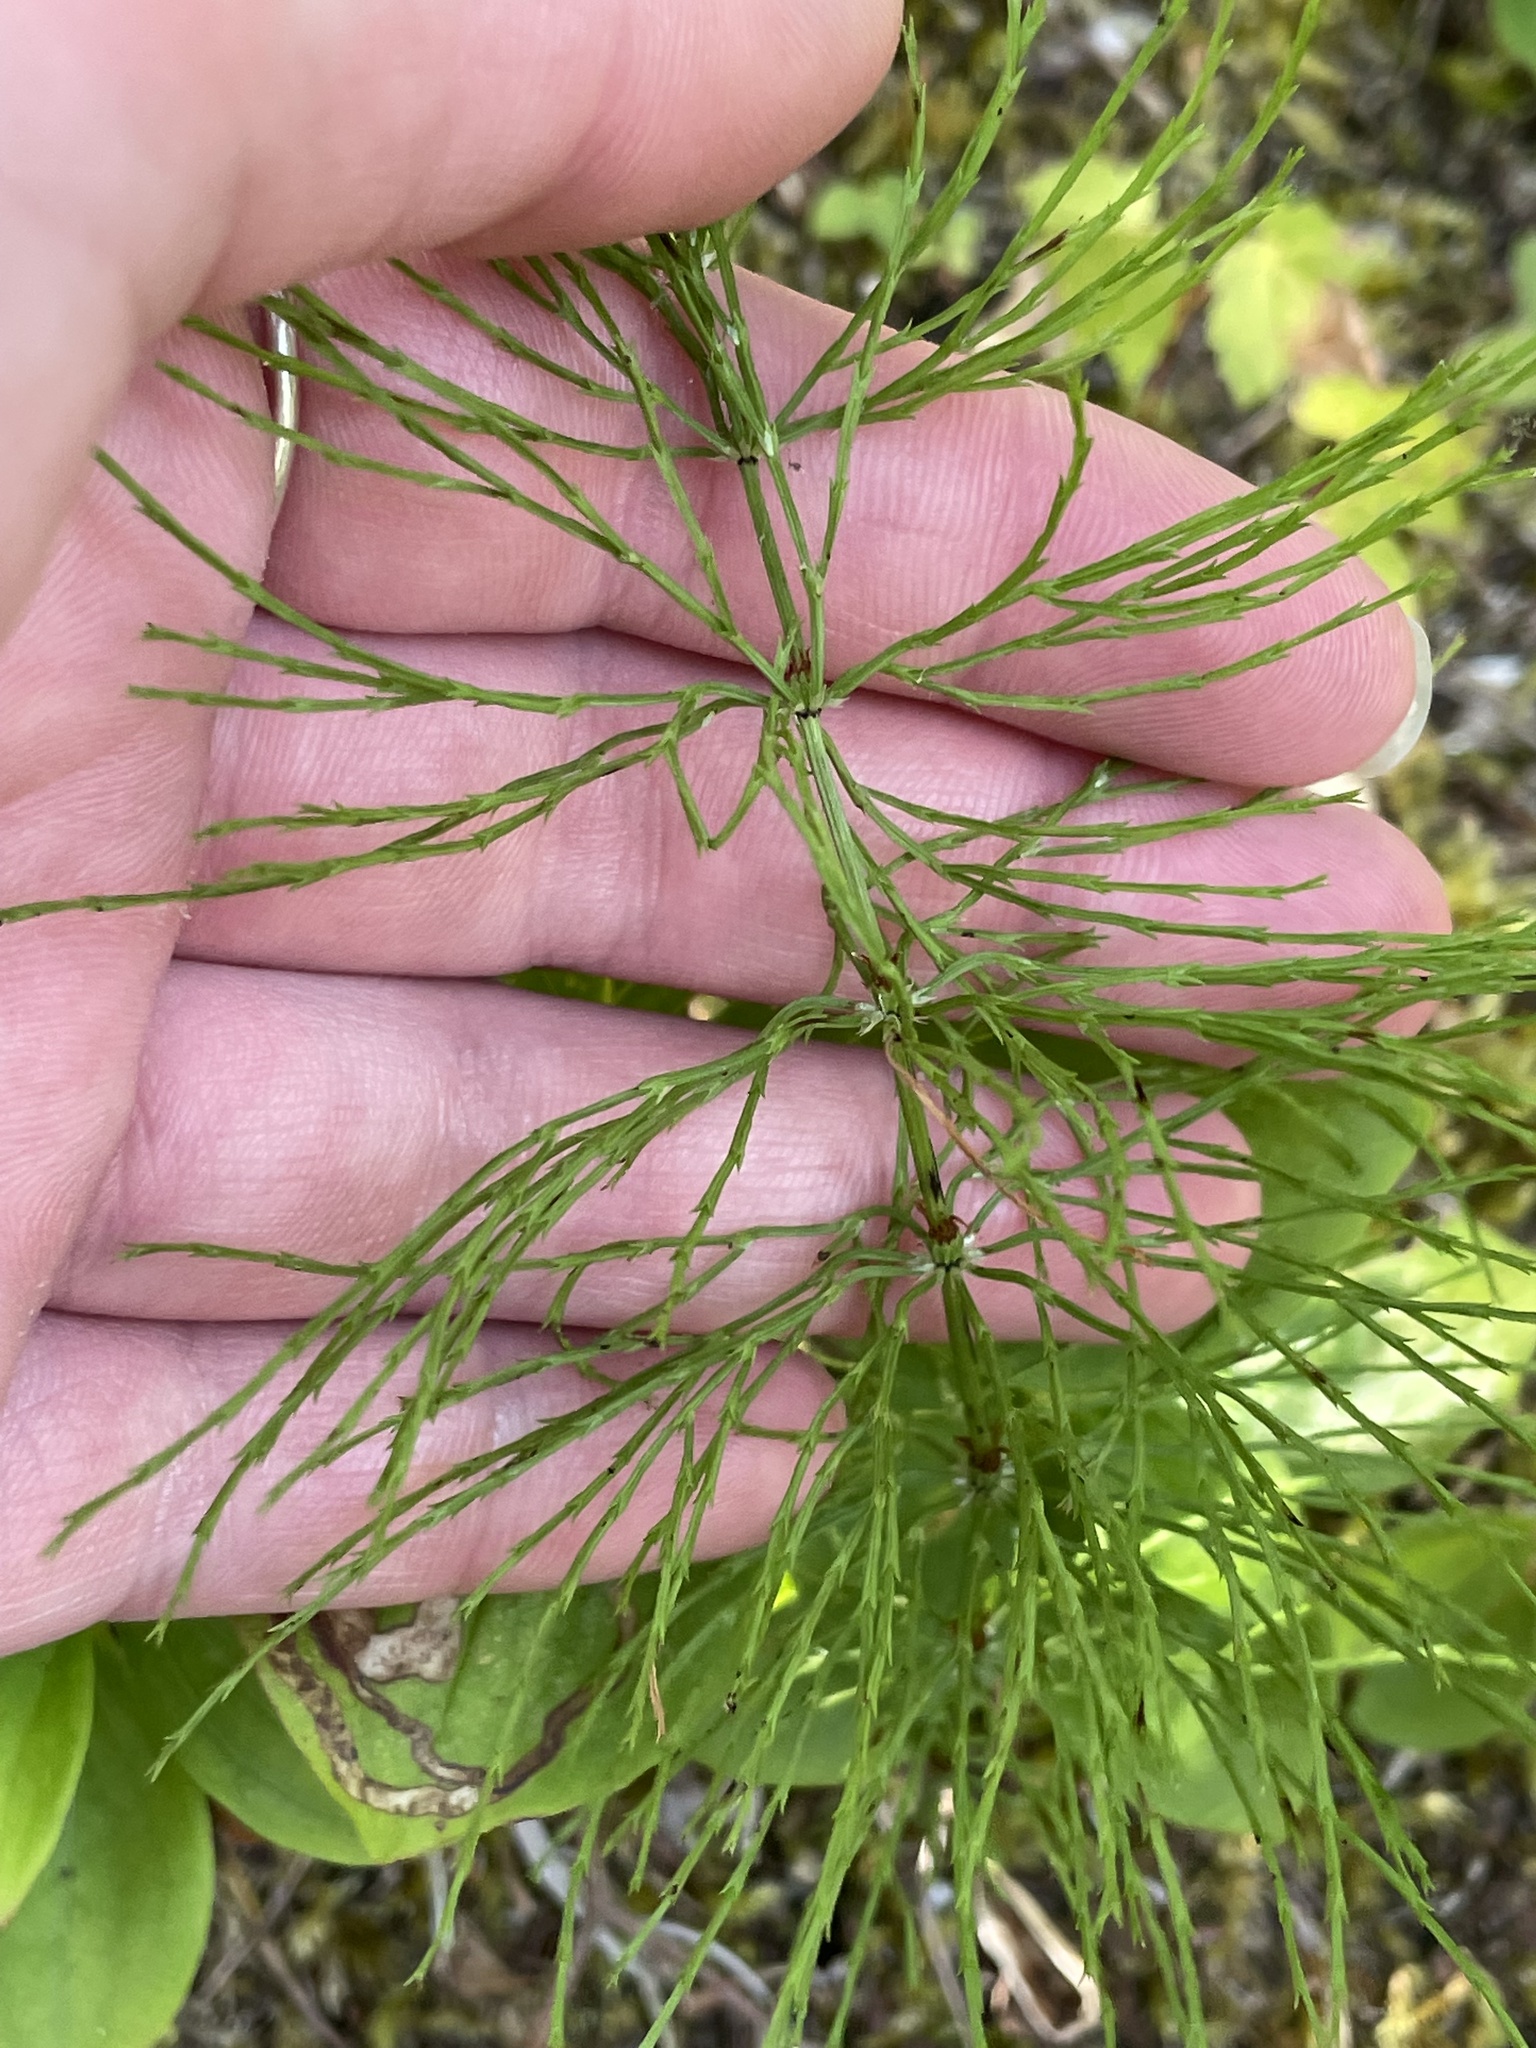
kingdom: Plantae
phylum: Tracheophyta
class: Polypodiopsida
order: Equisetales
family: Equisetaceae
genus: Equisetum
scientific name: Equisetum sylvaticum
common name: Wood horsetail
